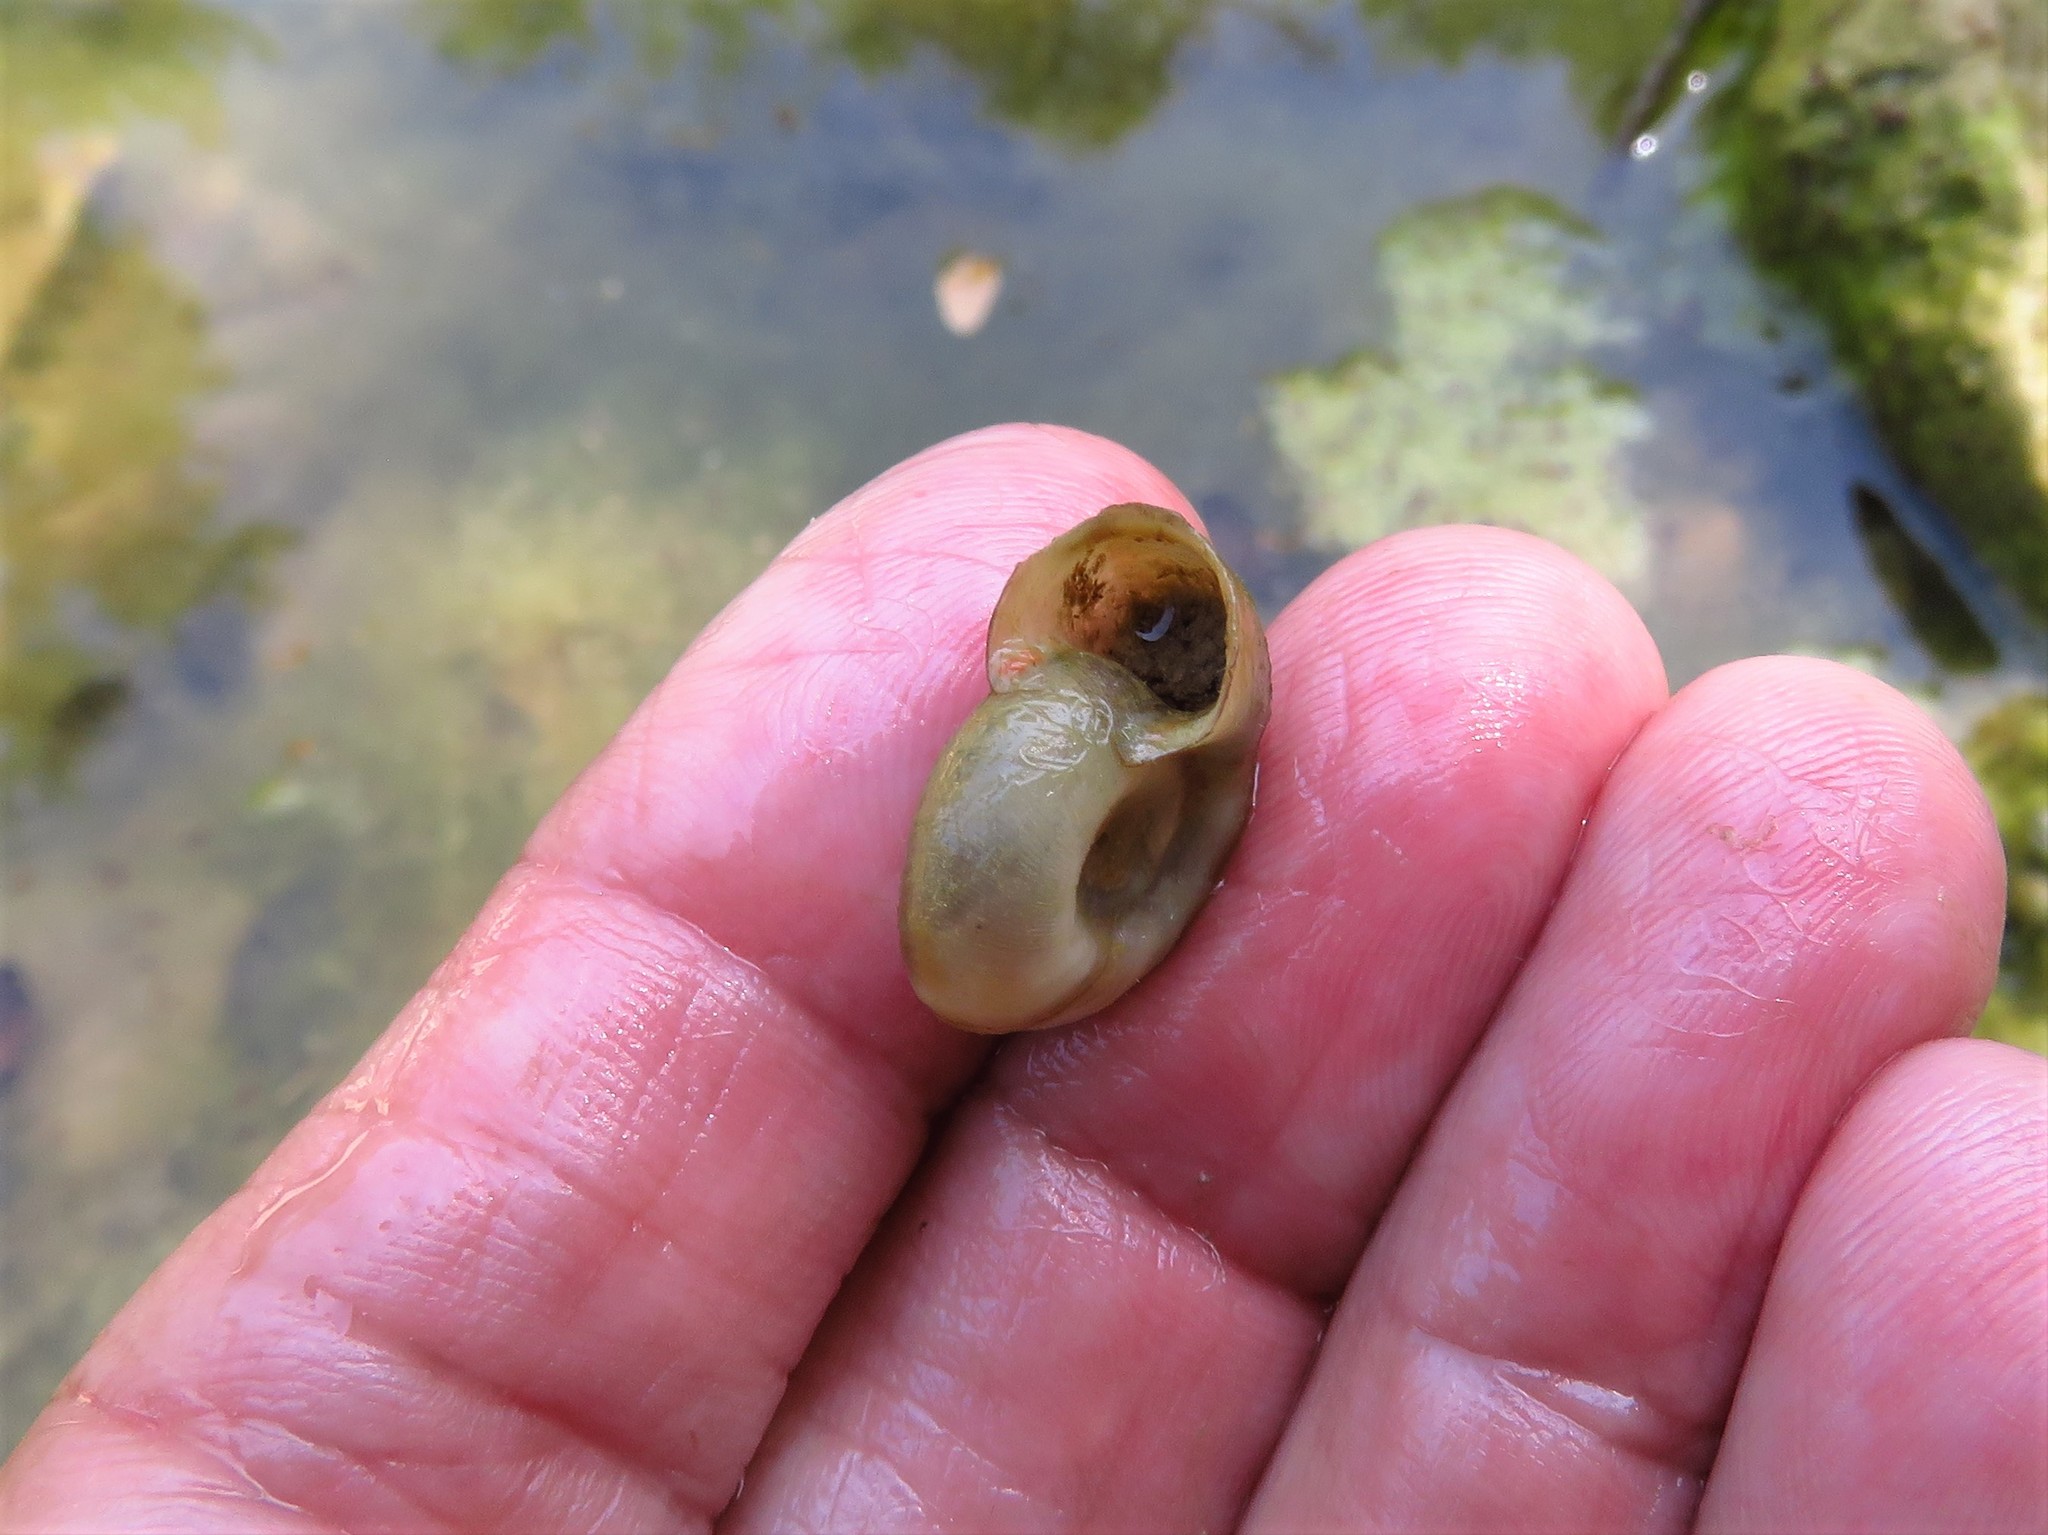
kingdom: Animalia
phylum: Mollusca
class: Gastropoda
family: Planorbidae
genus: Planorbella
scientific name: Planorbella trivolvis
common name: Marsh rams-horn
